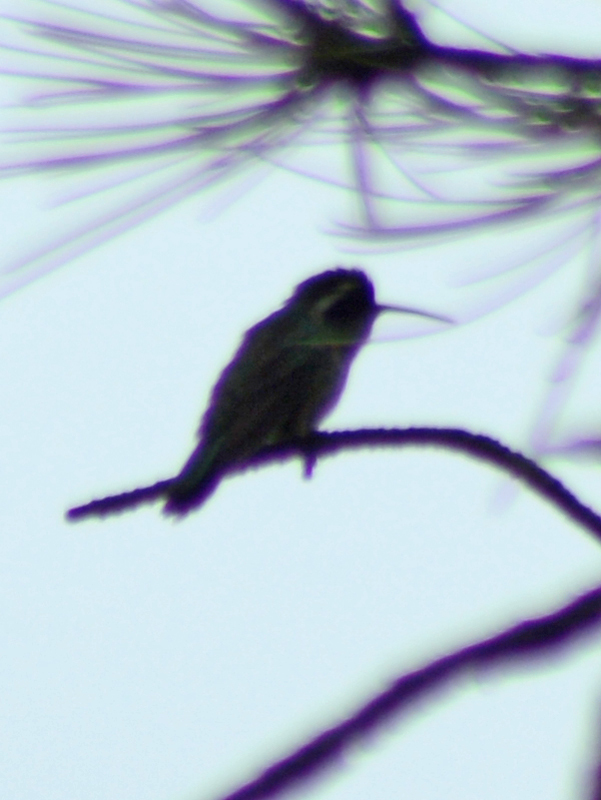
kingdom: Animalia
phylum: Chordata
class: Aves
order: Apodiformes
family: Trochilidae
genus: Basilinna
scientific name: Basilinna leucotis
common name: White-eared hummingbird
